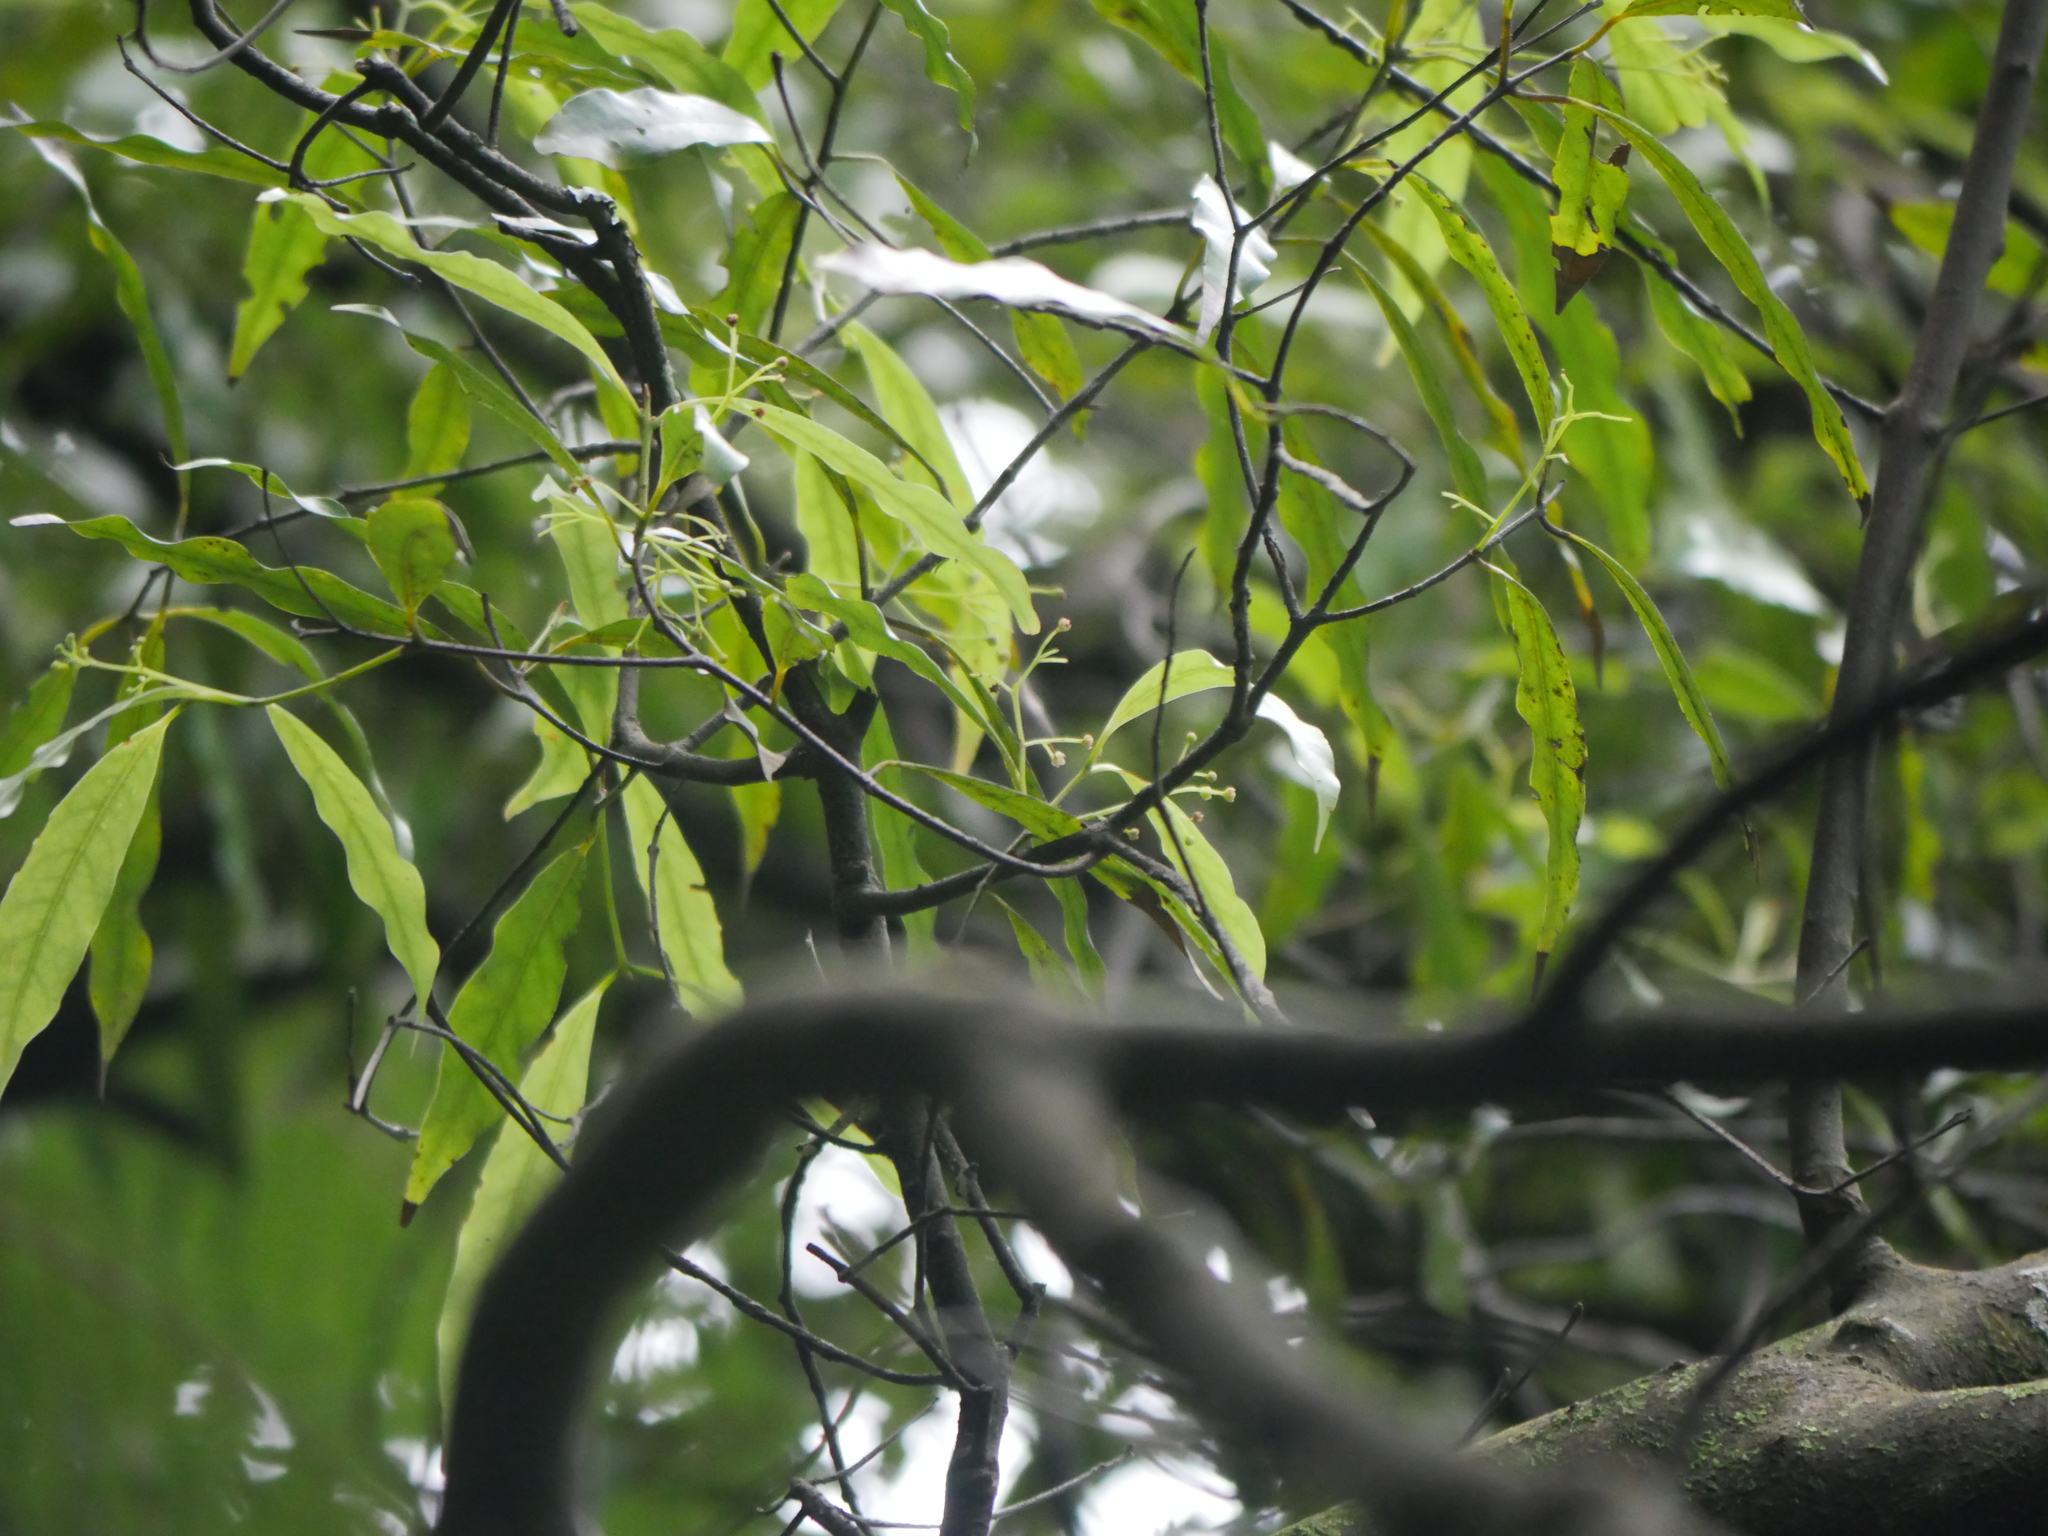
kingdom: Plantae
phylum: Tracheophyta
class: Magnoliopsida
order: Laurales
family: Lauraceae
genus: Beilschmiedia
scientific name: Beilschmiedia tawa
